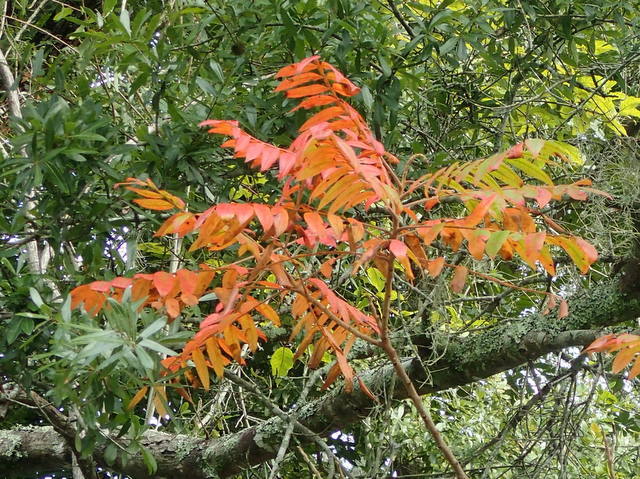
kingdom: Plantae
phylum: Tracheophyta
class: Magnoliopsida
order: Sapindales
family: Anacardiaceae
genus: Rhus
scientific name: Rhus copallina
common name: Shining sumac
